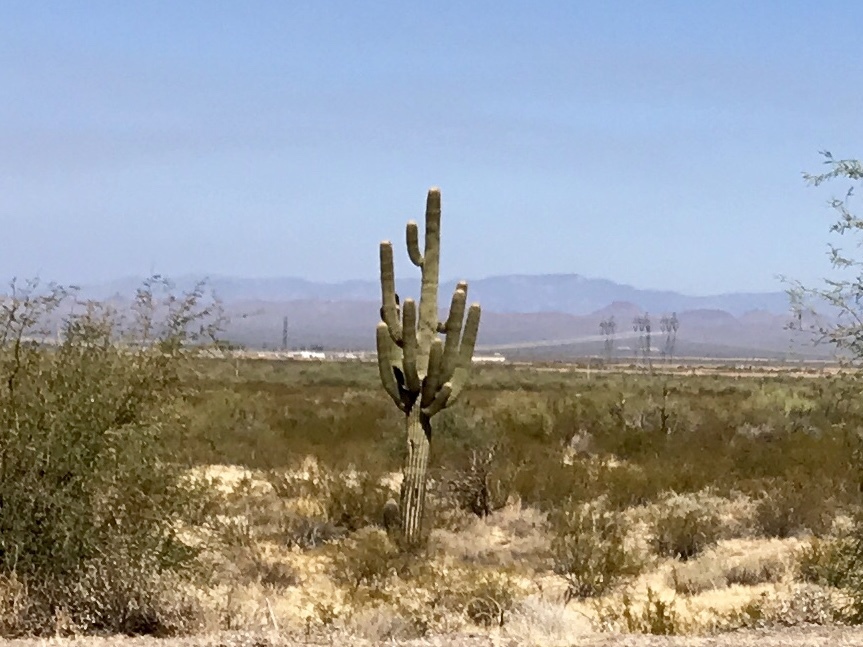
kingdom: Plantae
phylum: Tracheophyta
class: Magnoliopsida
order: Caryophyllales
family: Cactaceae
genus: Carnegiea
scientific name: Carnegiea gigantea
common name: Saguaro
